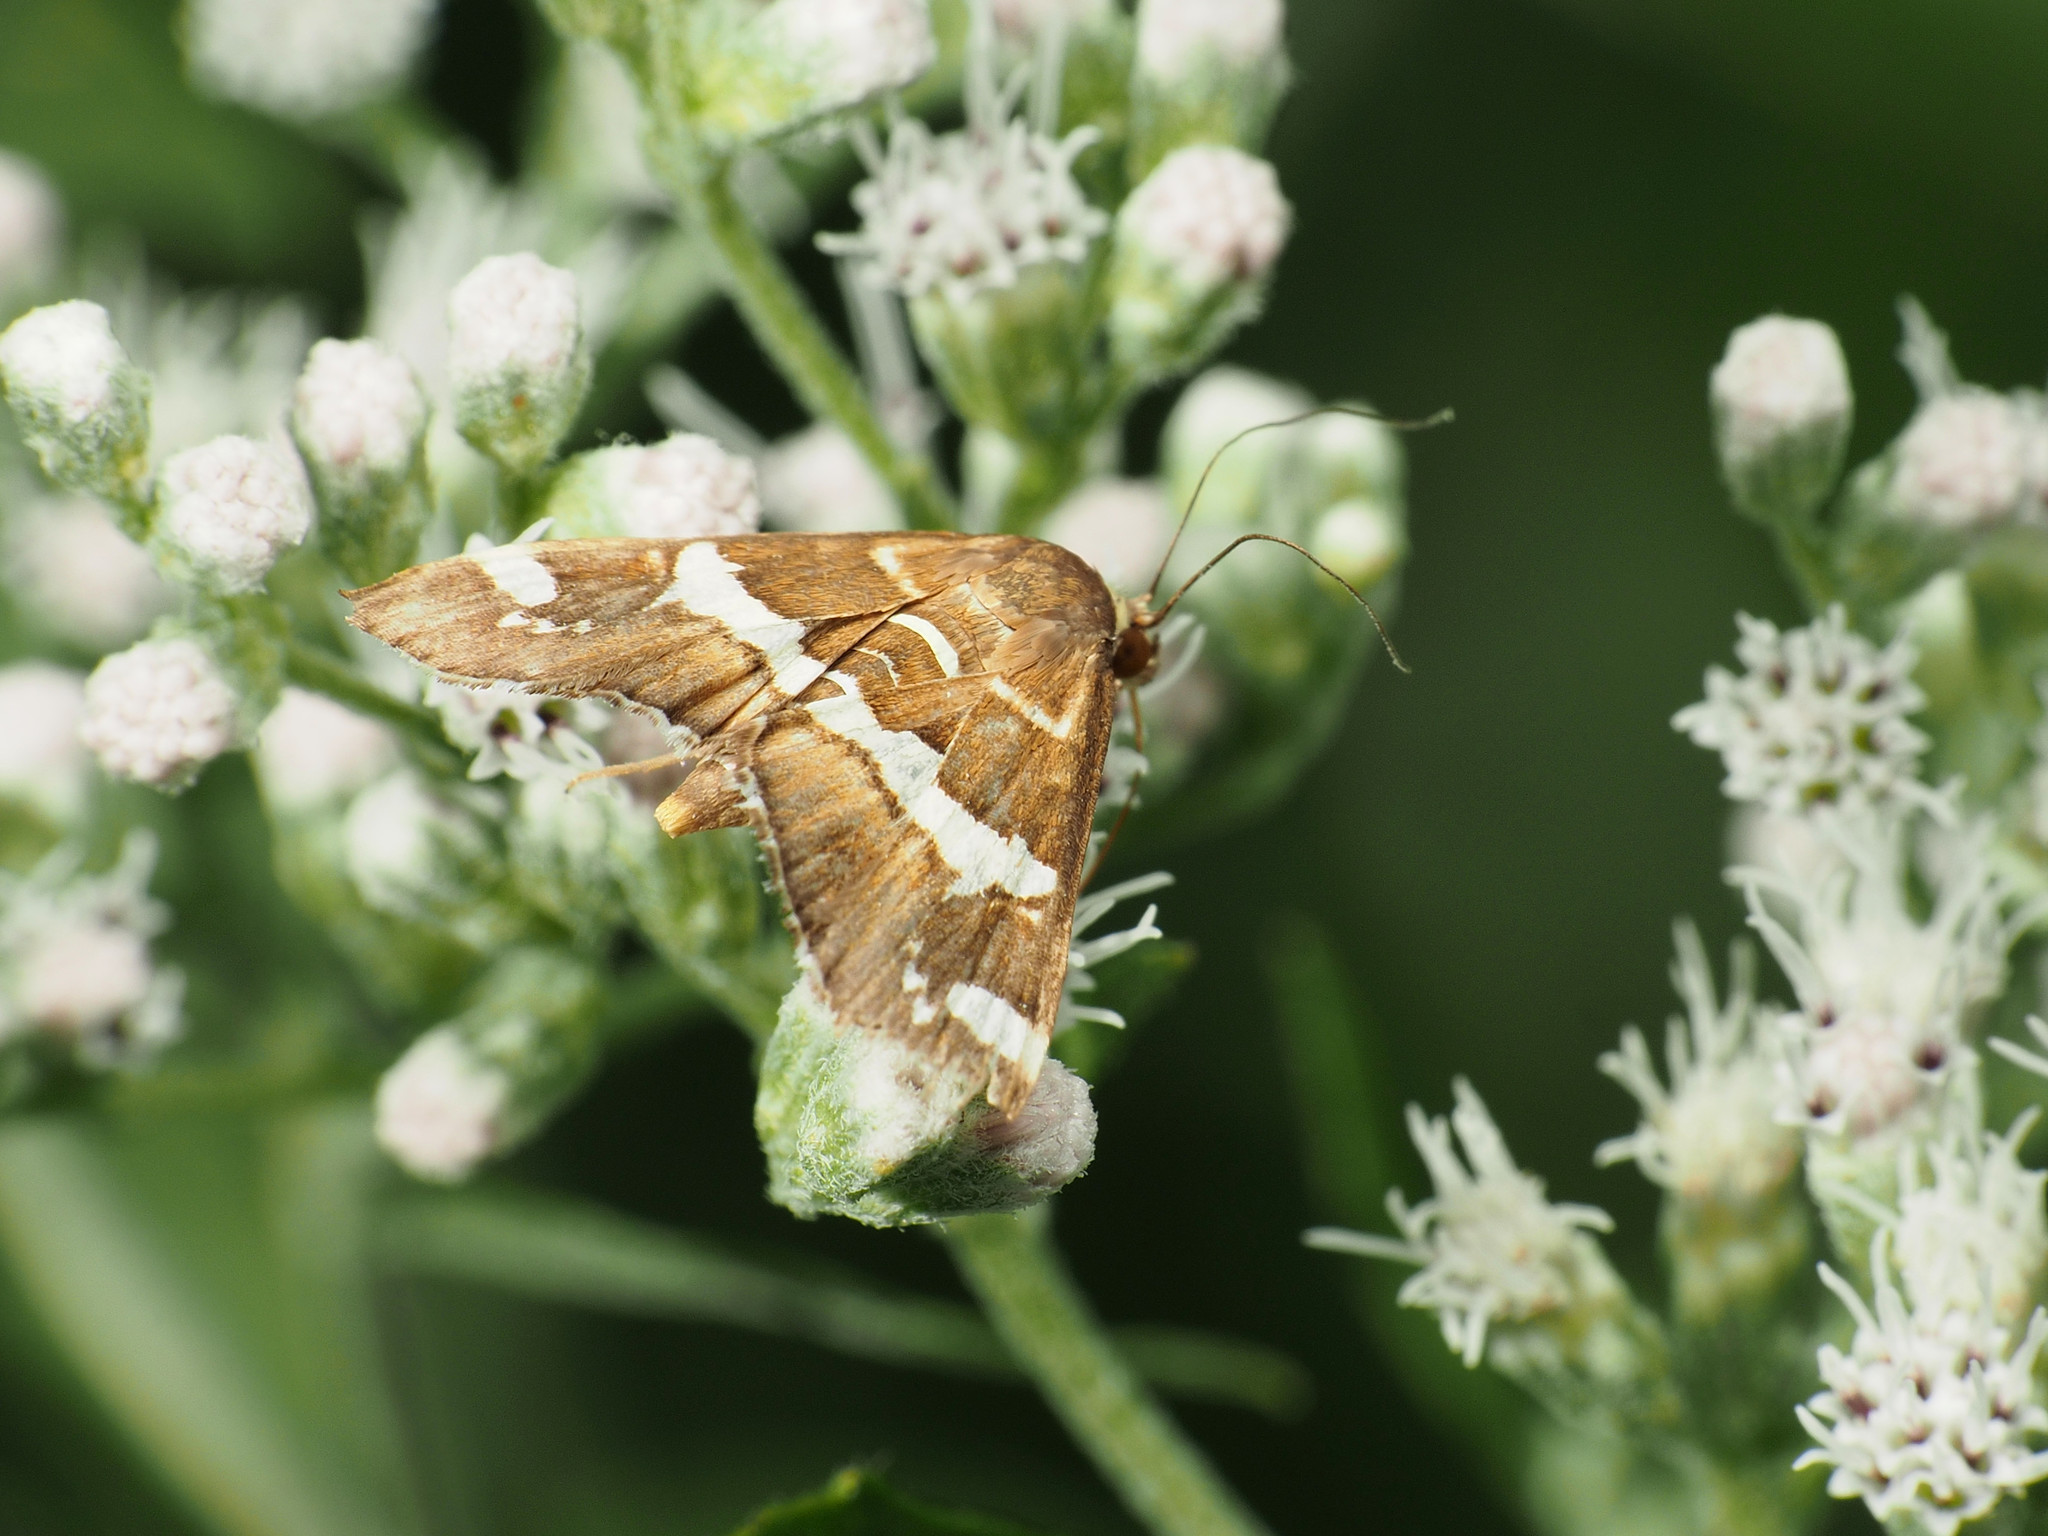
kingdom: Animalia
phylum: Arthropoda
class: Insecta
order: Lepidoptera
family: Crambidae
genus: Spoladea
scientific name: Spoladea recurvalis
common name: Beet webworm moth
